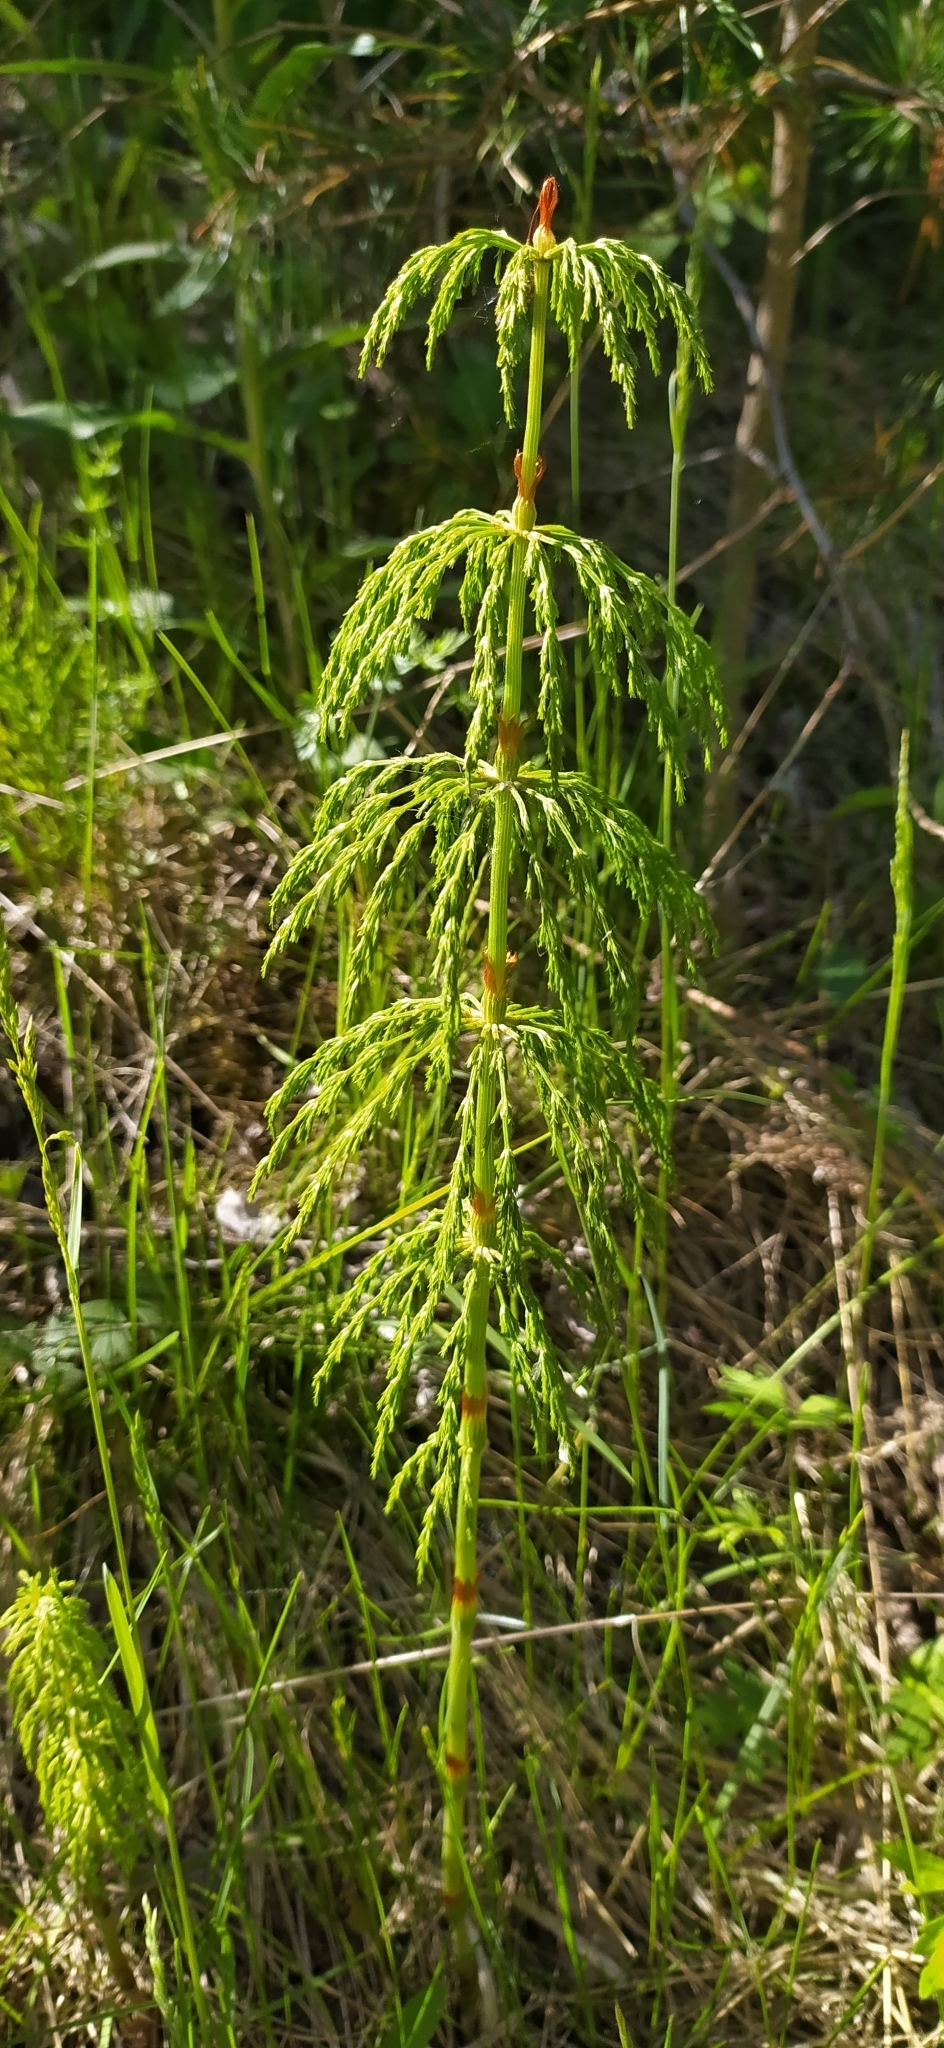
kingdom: Plantae
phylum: Tracheophyta
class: Polypodiopsida
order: Equisetales
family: Equisetaceae
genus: Equisetum
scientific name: Equisetum sylvaticum
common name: Wood horsetail
